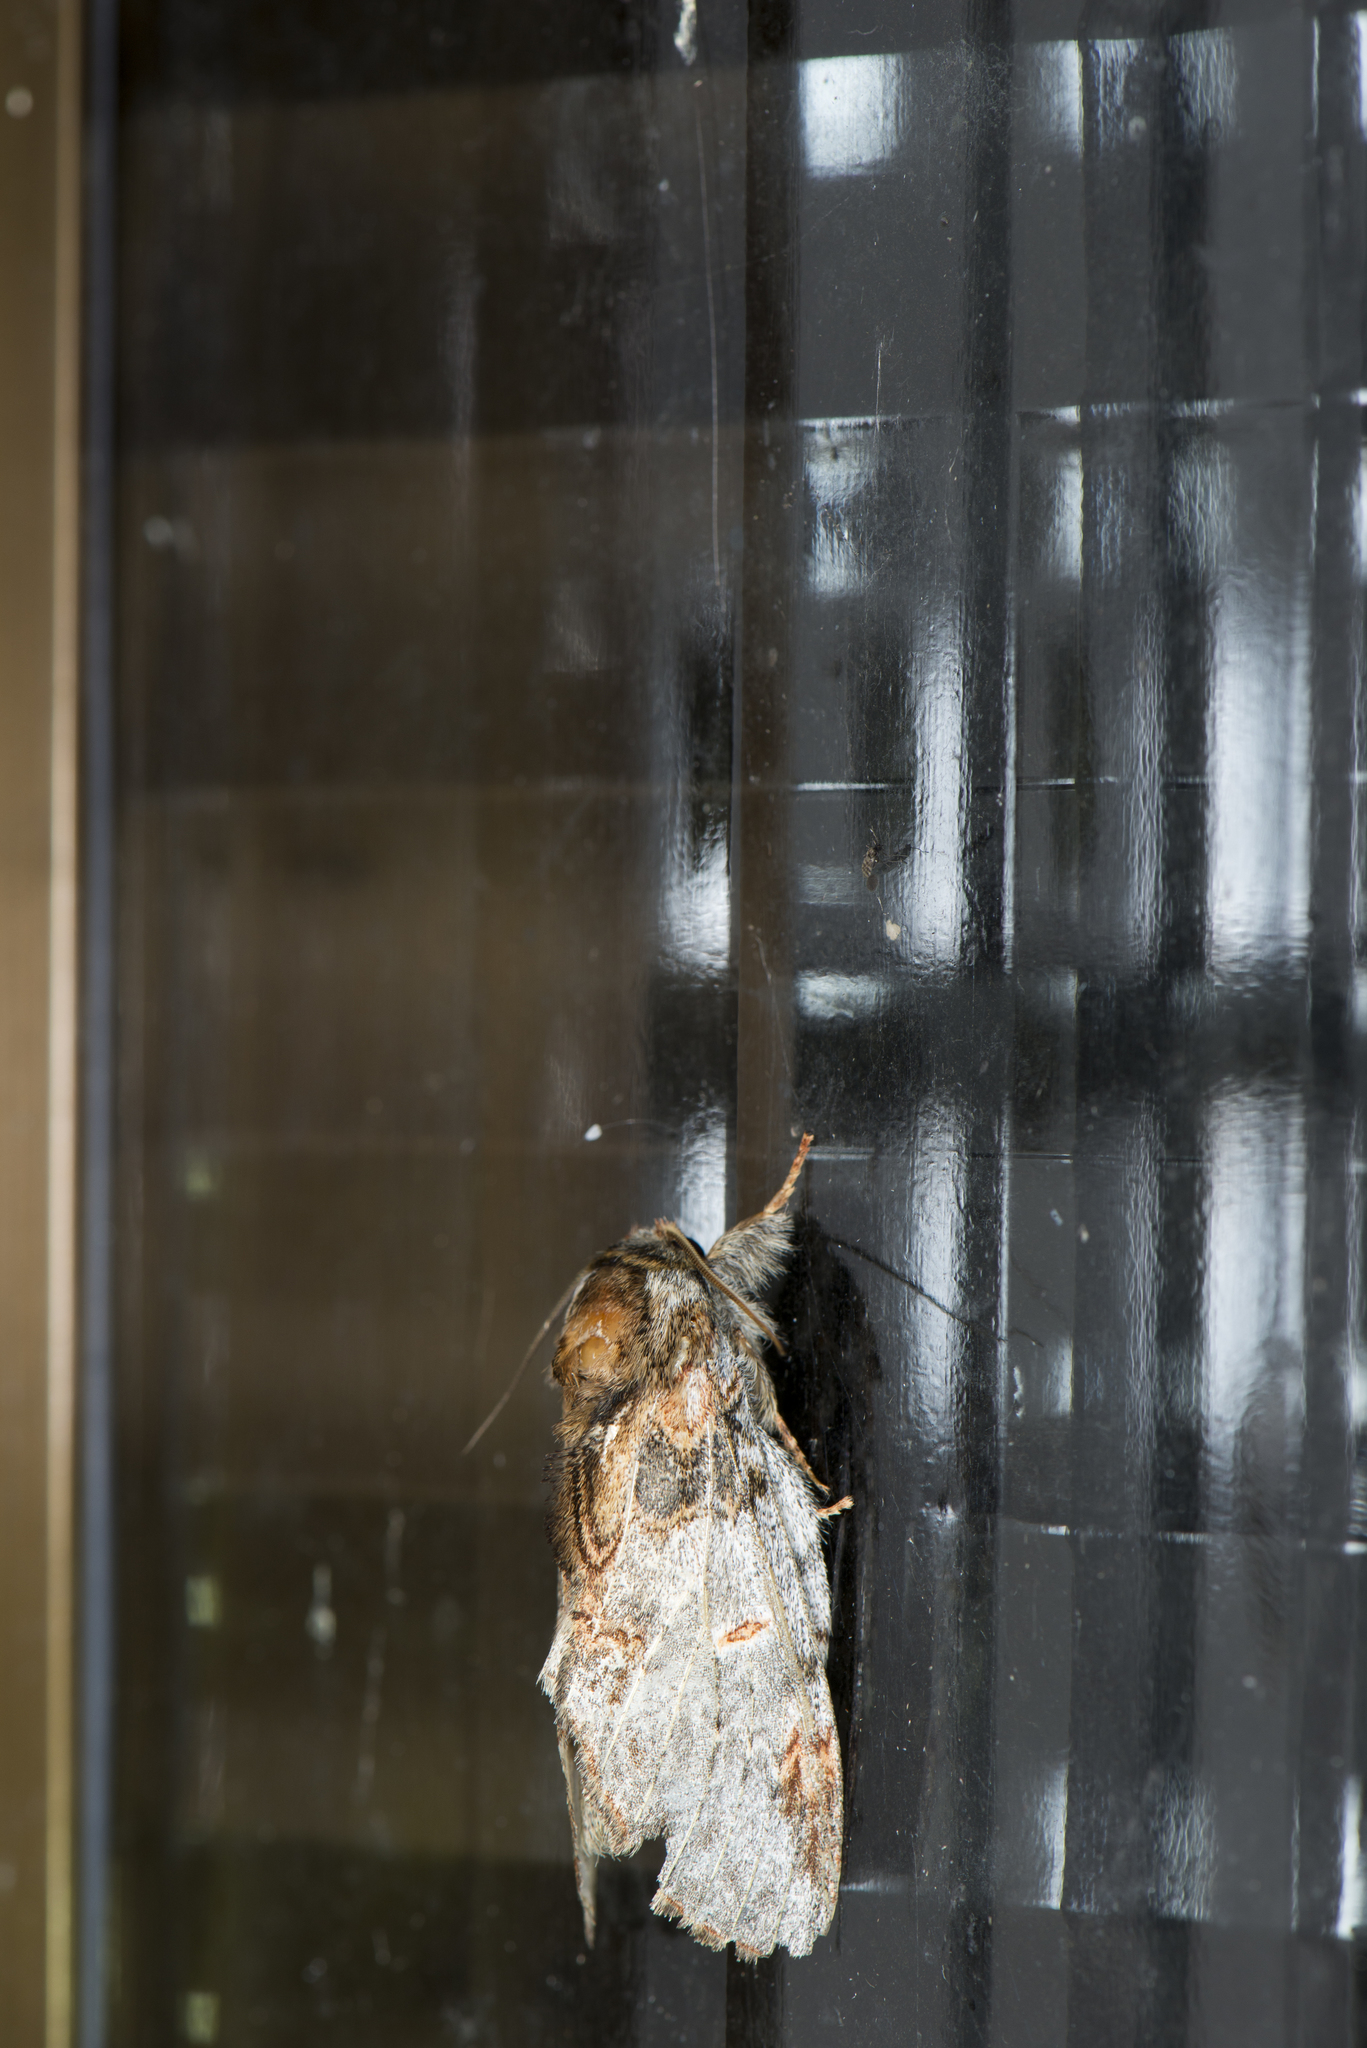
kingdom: Animalia
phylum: Arthropoda
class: Insecta
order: Lepidoptera
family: Notodontidae
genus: Peridea
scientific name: Peridea graeseri
